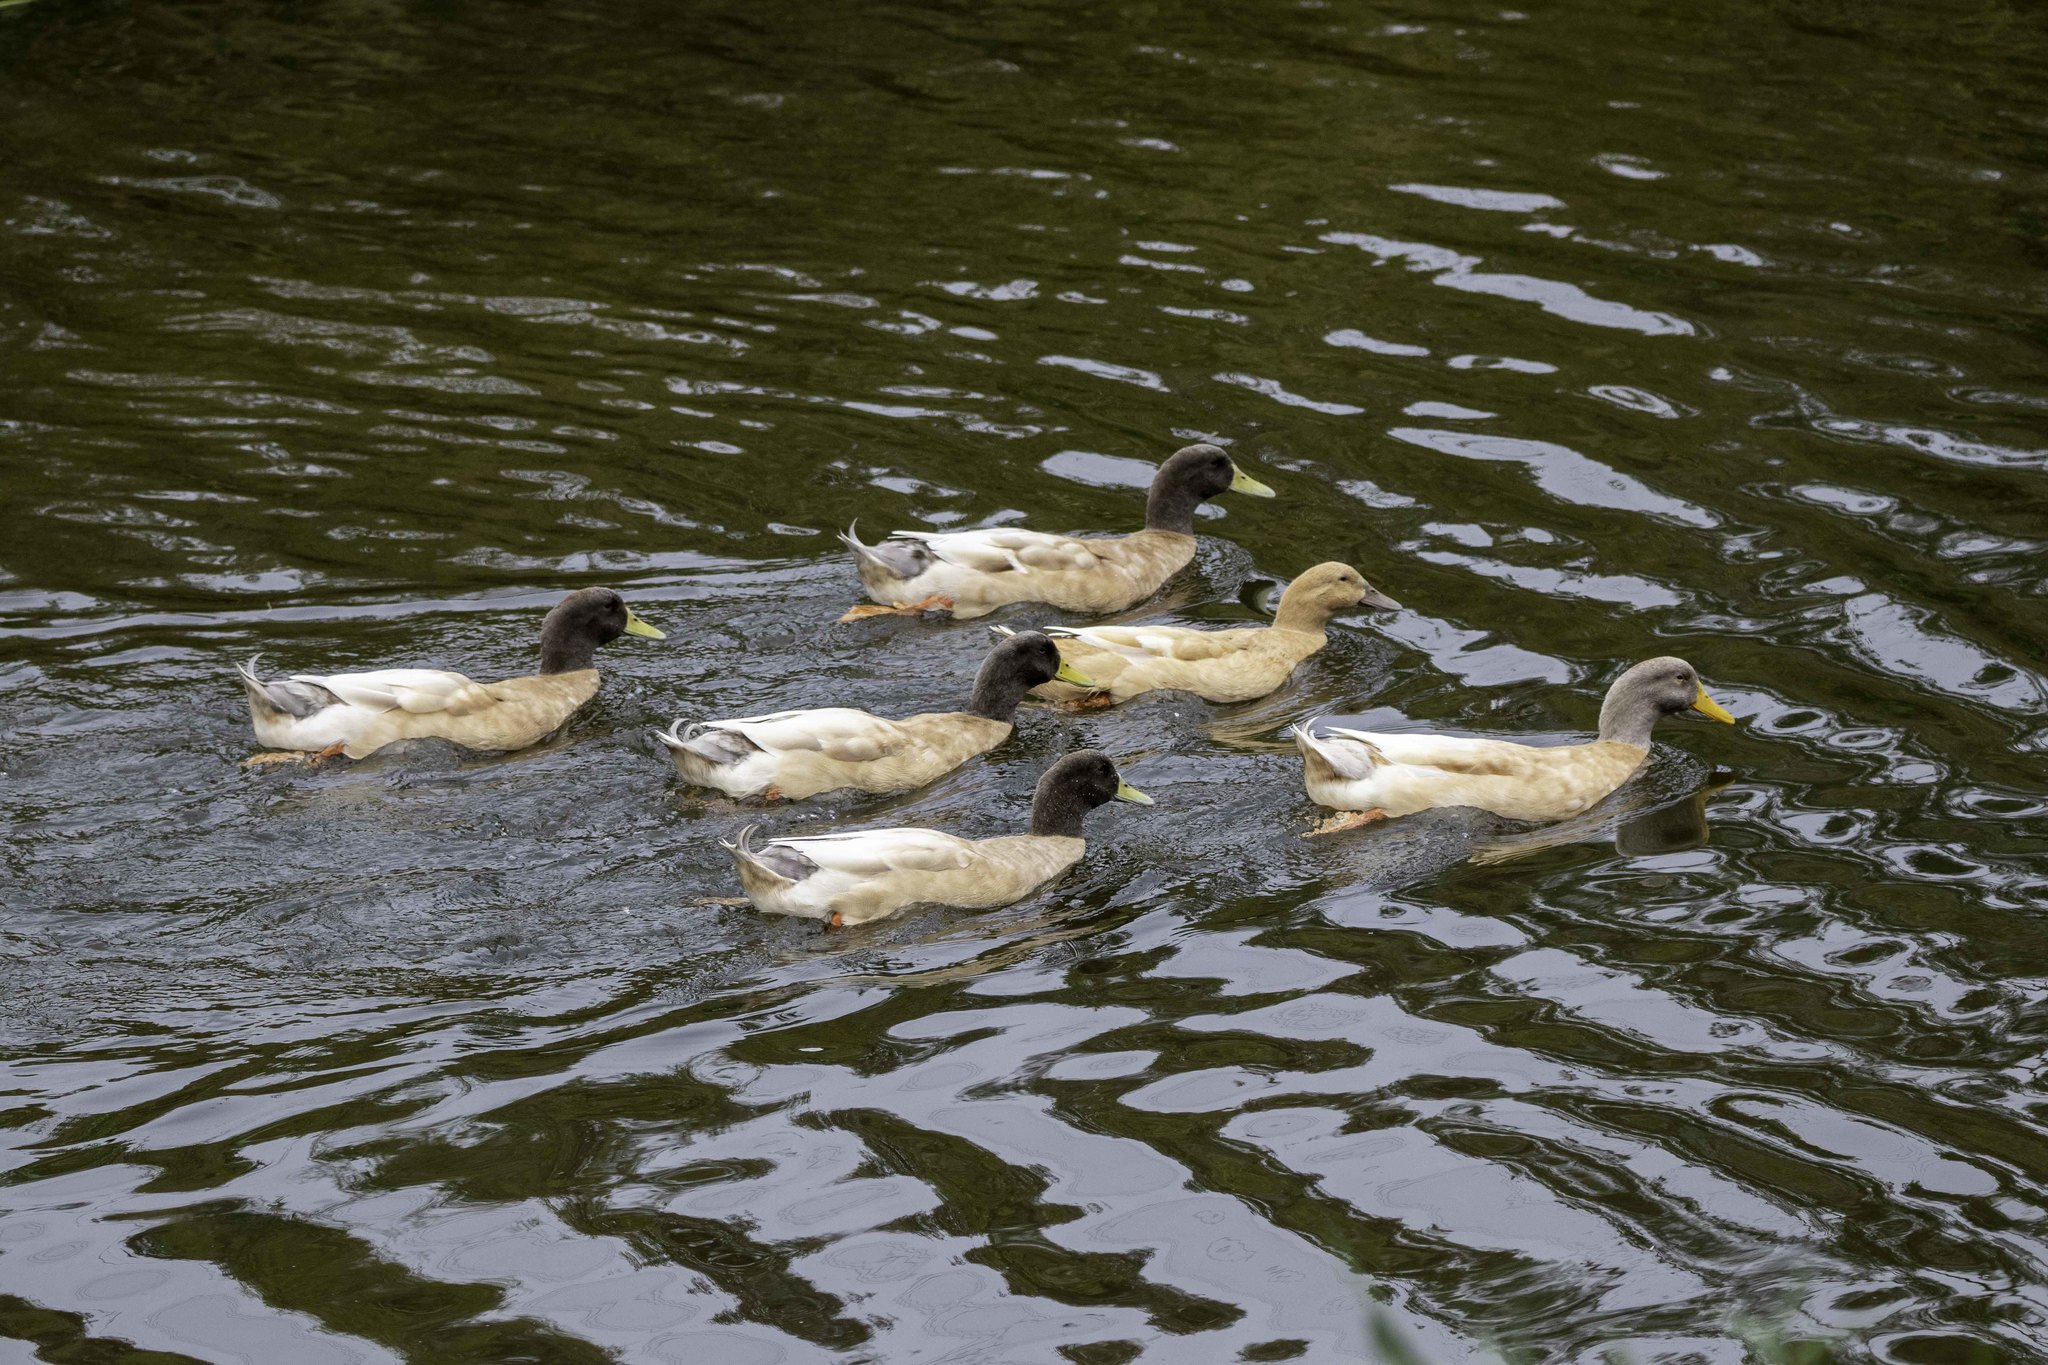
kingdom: Animalia
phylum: Chordata
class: Aves
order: Anseriformes
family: Anatidae
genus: Anas
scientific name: Anas platyrhynchos
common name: Mallard
